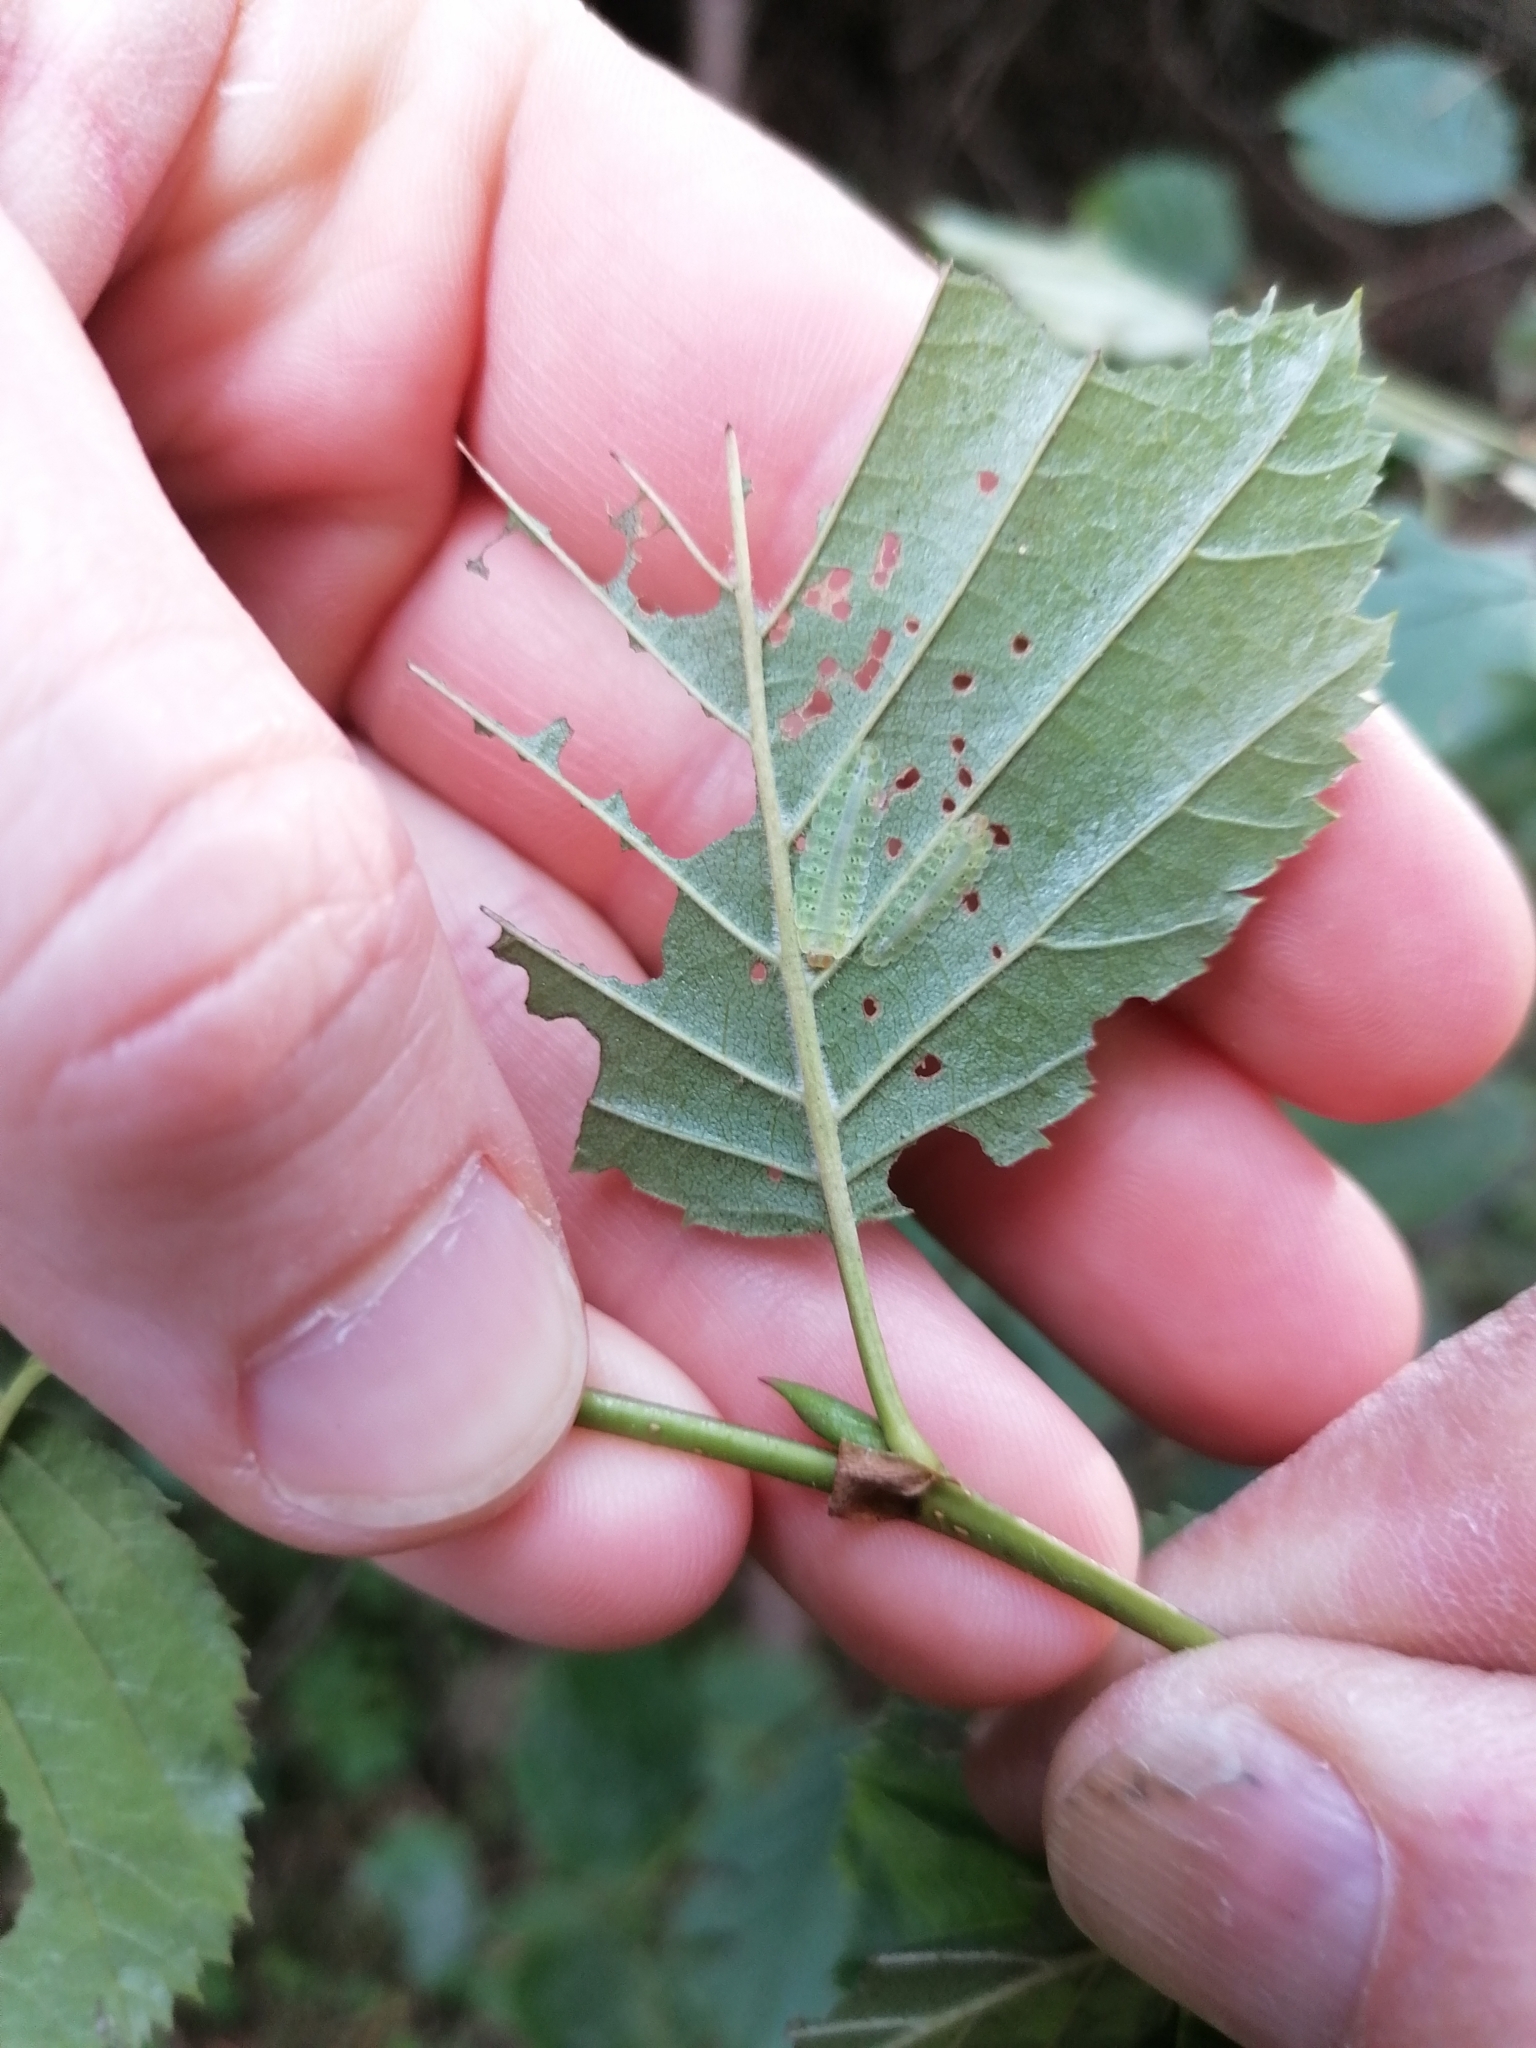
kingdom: Animalia
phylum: Arthropoda
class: Insecta
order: Hymenoptera
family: Tenthredinidae
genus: Platycampus
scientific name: Platycampus luridiventris
